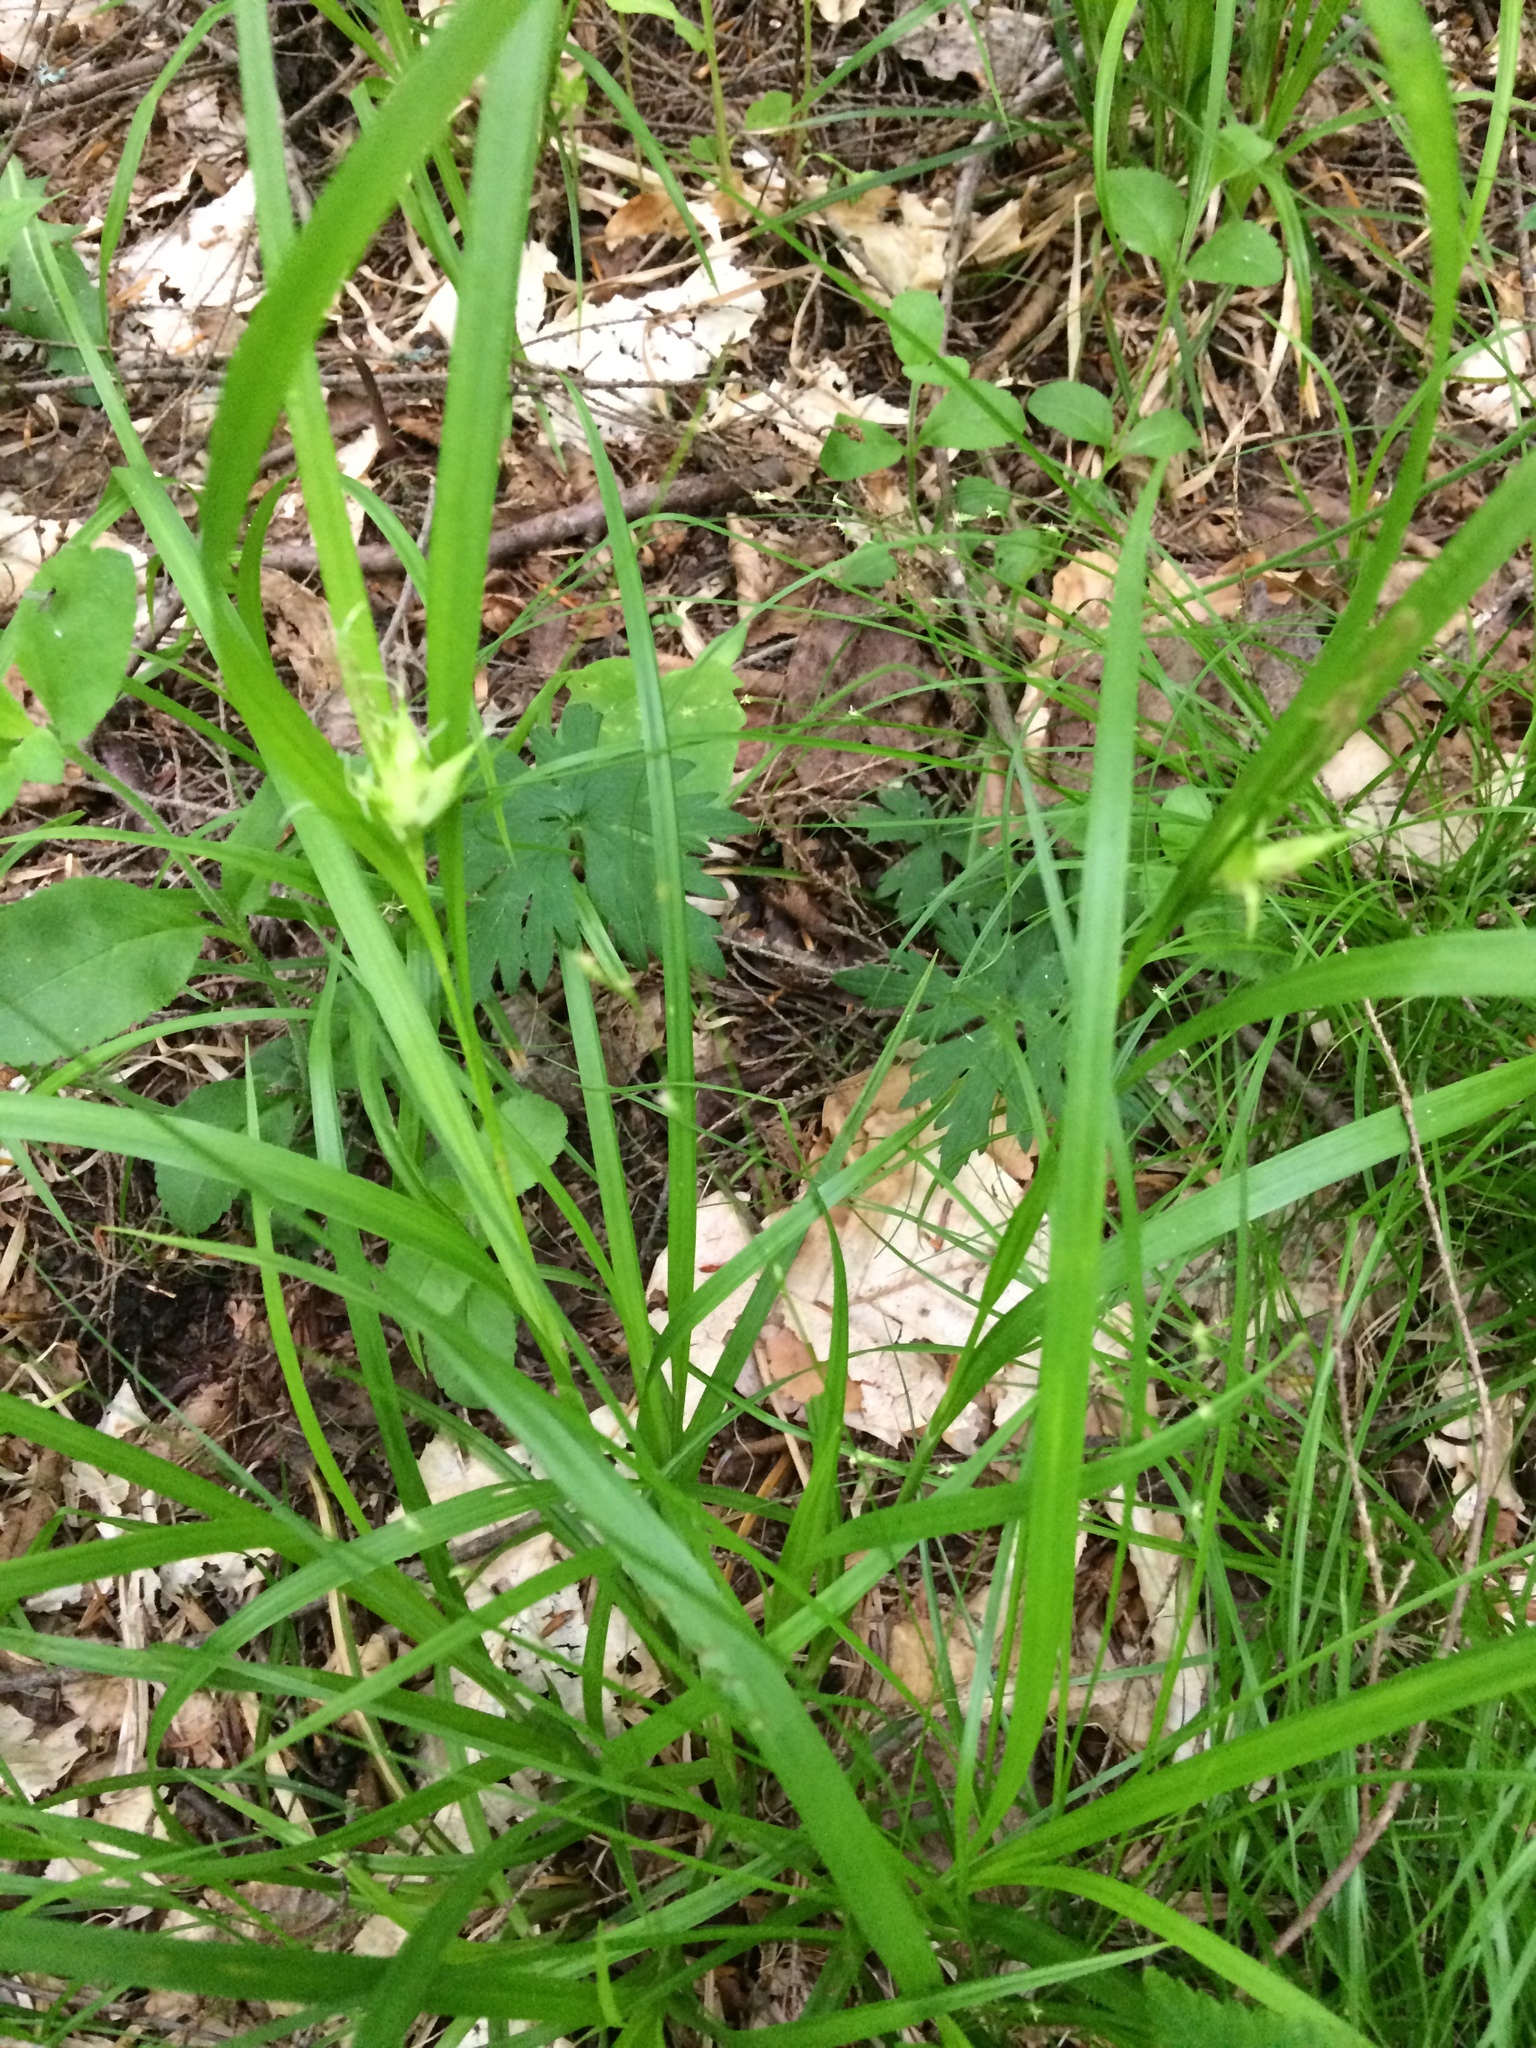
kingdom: Plantae
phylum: Tracheophyta
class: Liliopsida
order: Poales
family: Cyperaceae
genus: Carex
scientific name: Carex intumescens
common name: Greater bladder sedge
